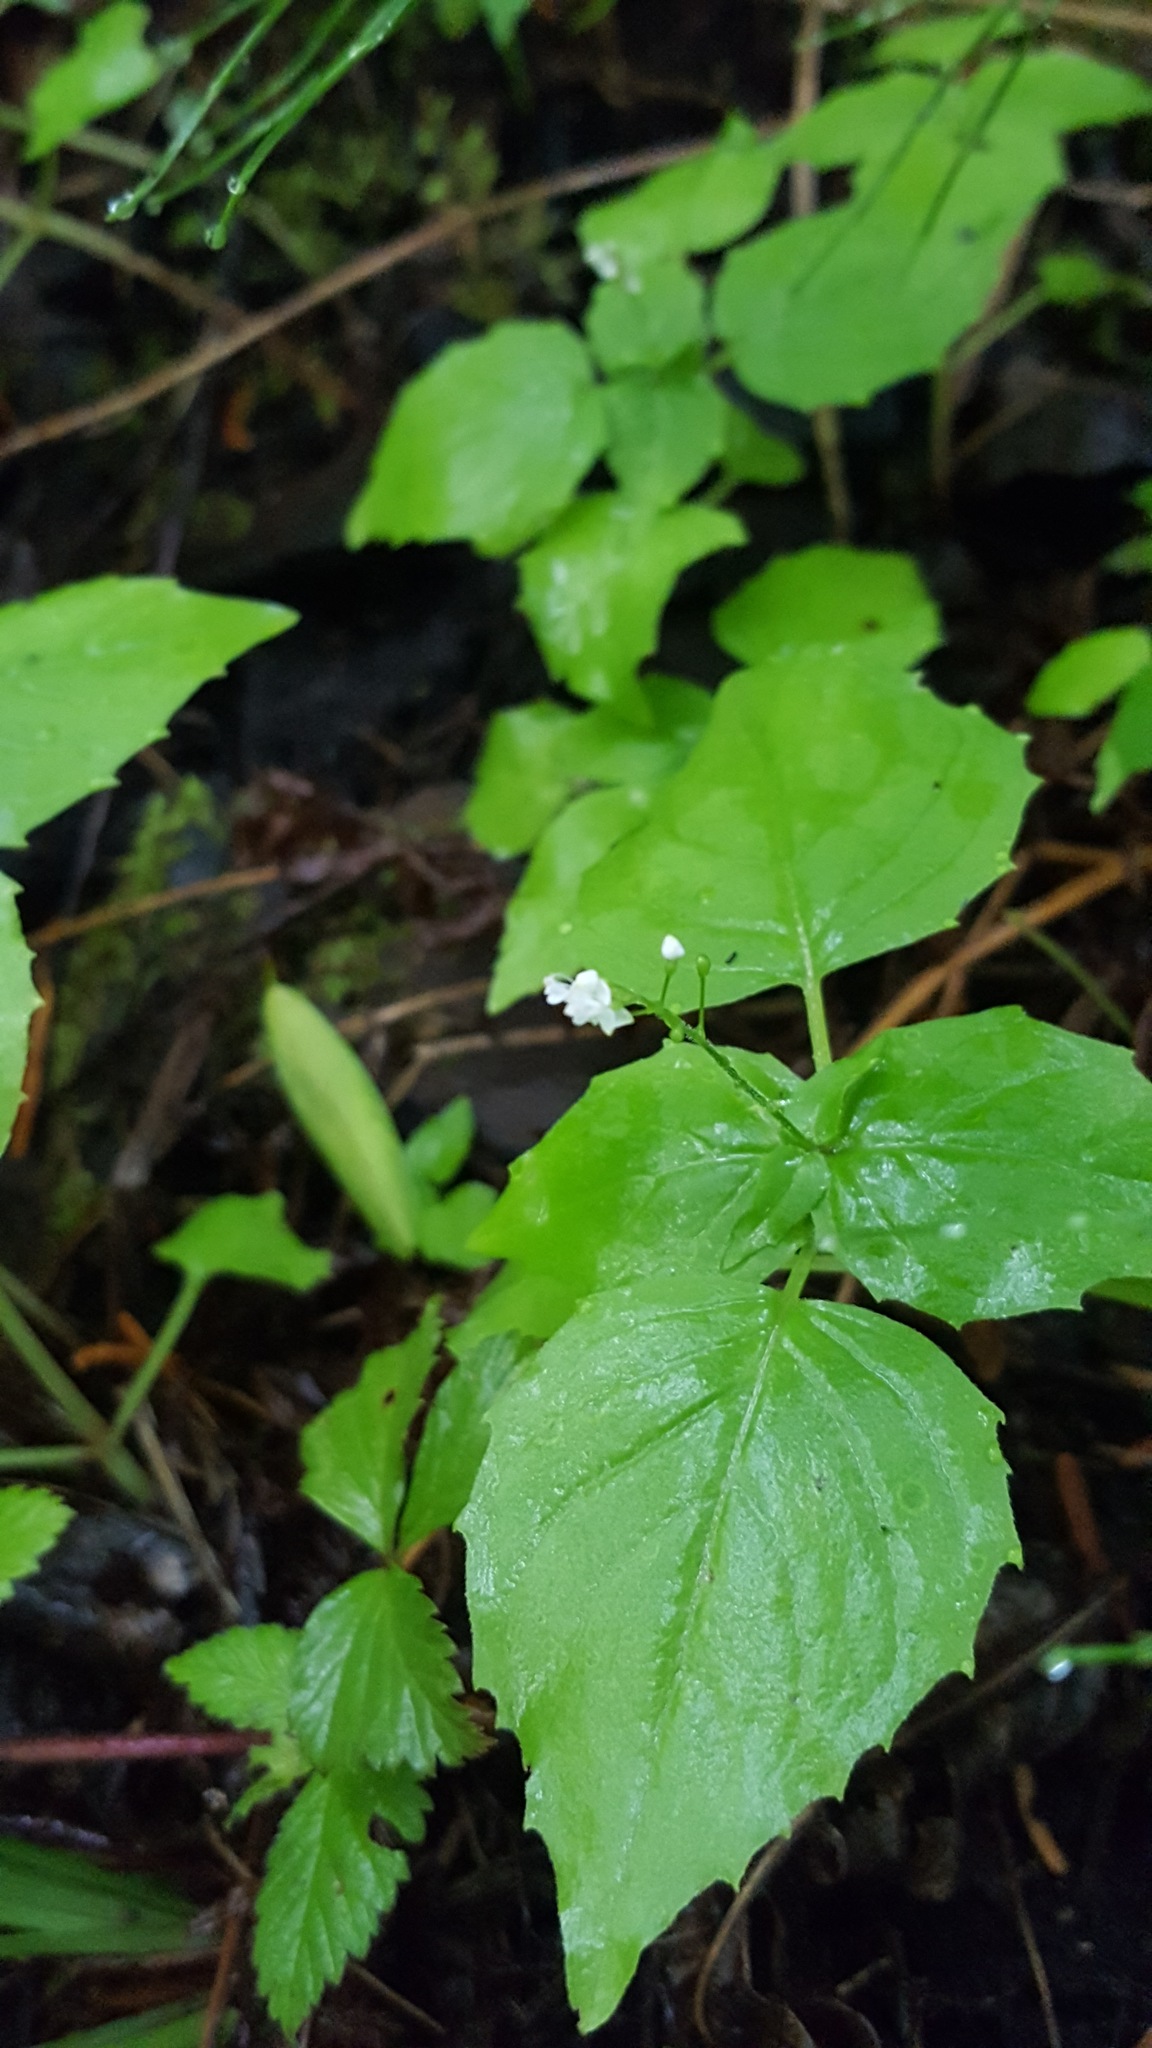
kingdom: Plantae
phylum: Tracheophyta
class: Magnoliopsida
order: Myrtales
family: Onagraceae
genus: Circaea
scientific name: Circaea alpina
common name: Alpine enchanter's-nightshade
